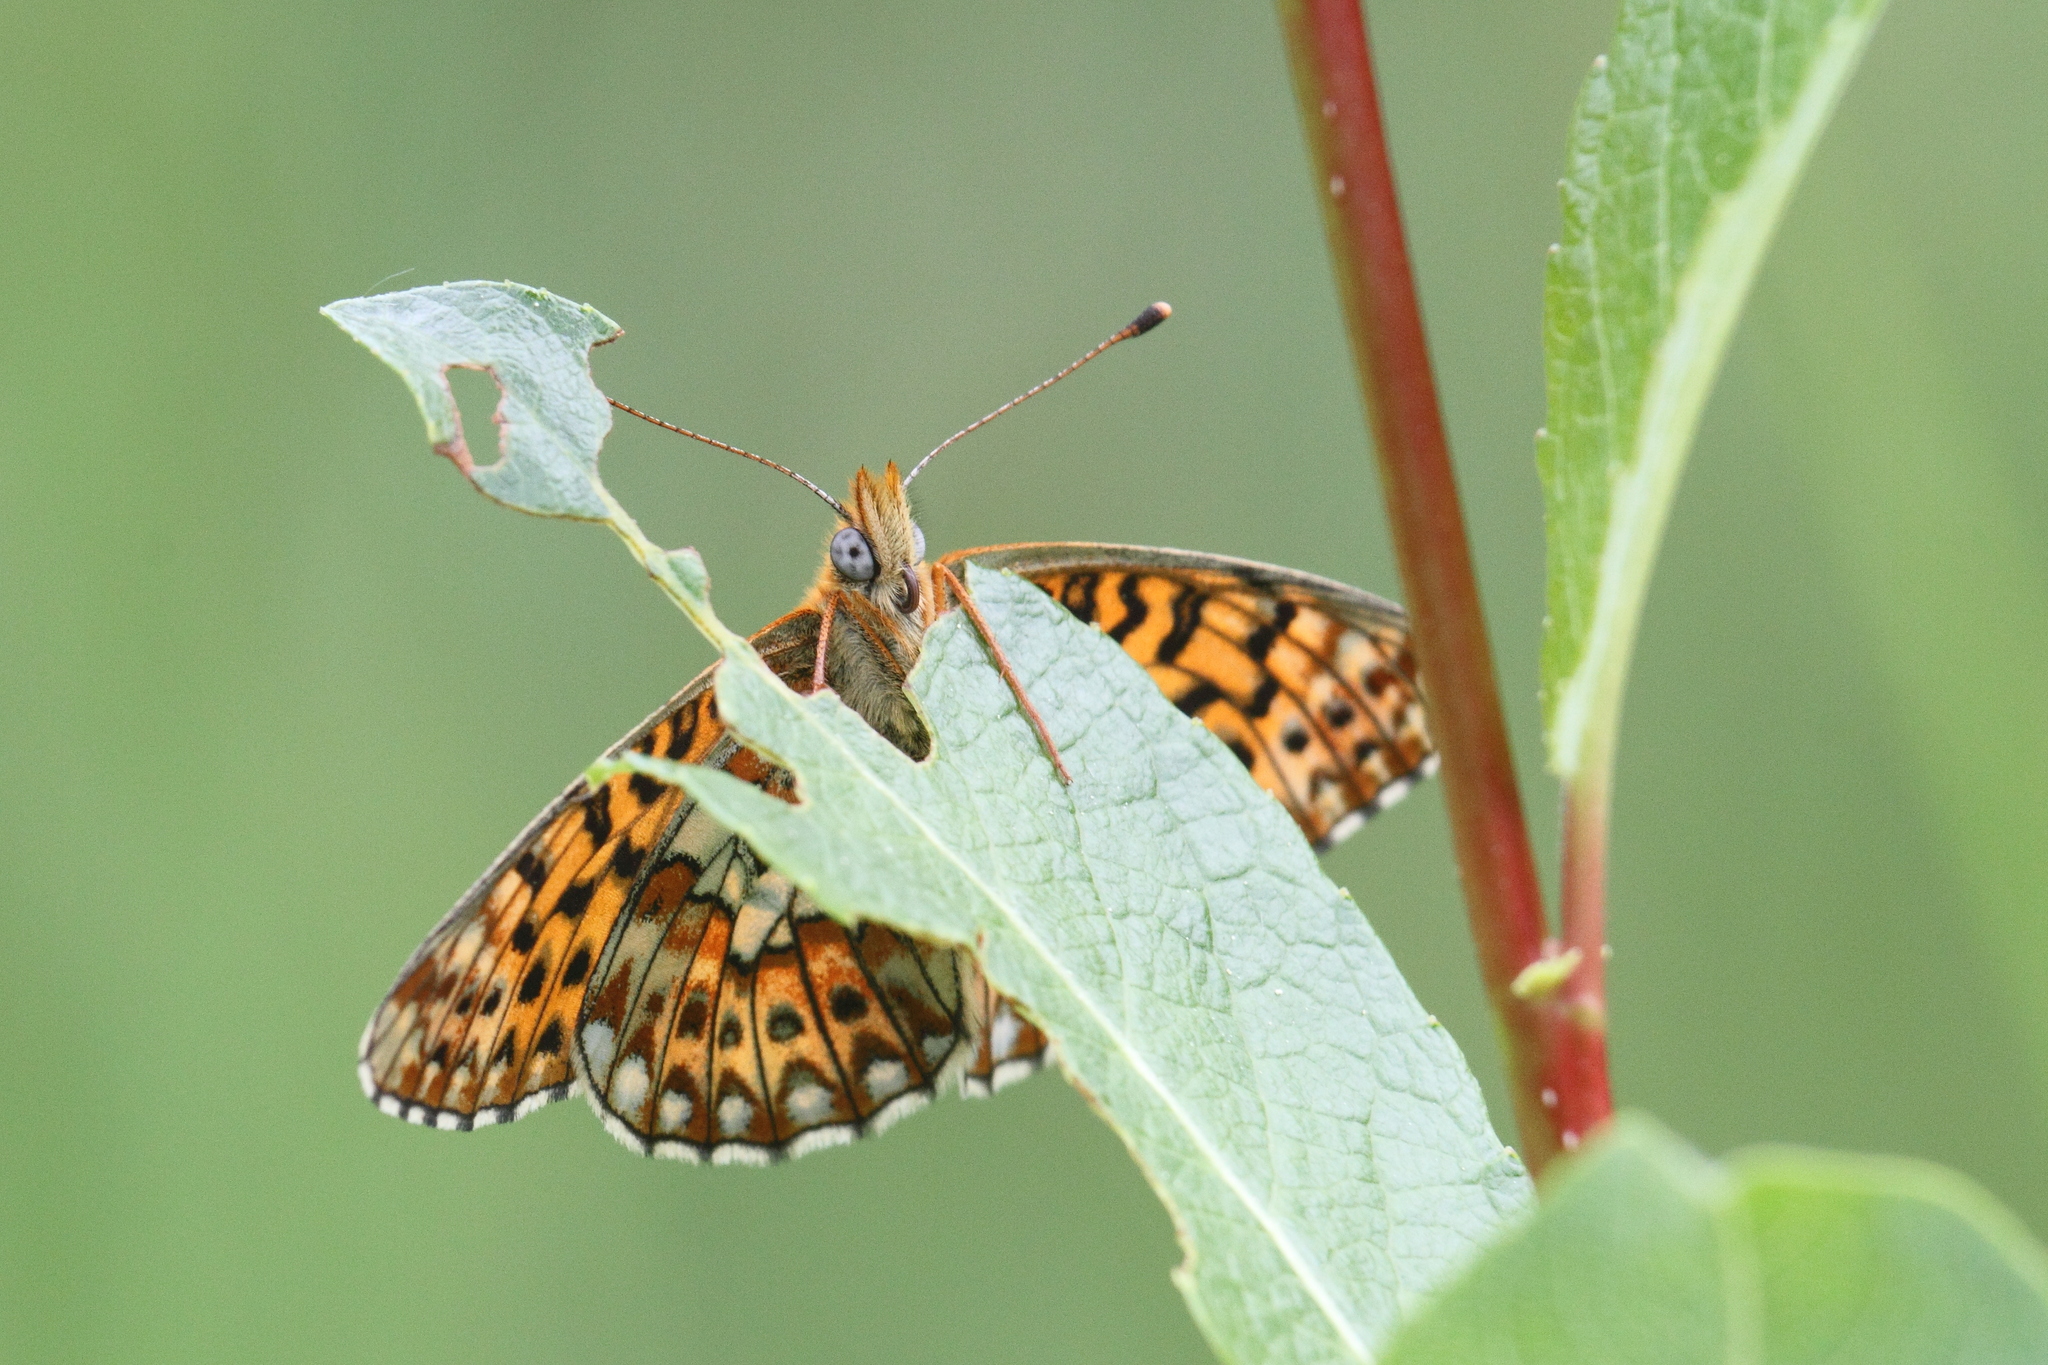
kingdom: Animalia
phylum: Arthropoda
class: Insecta
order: Lepidoptera
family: Nymphalidae
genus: Clossiana
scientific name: Clossiana euphrosyne
